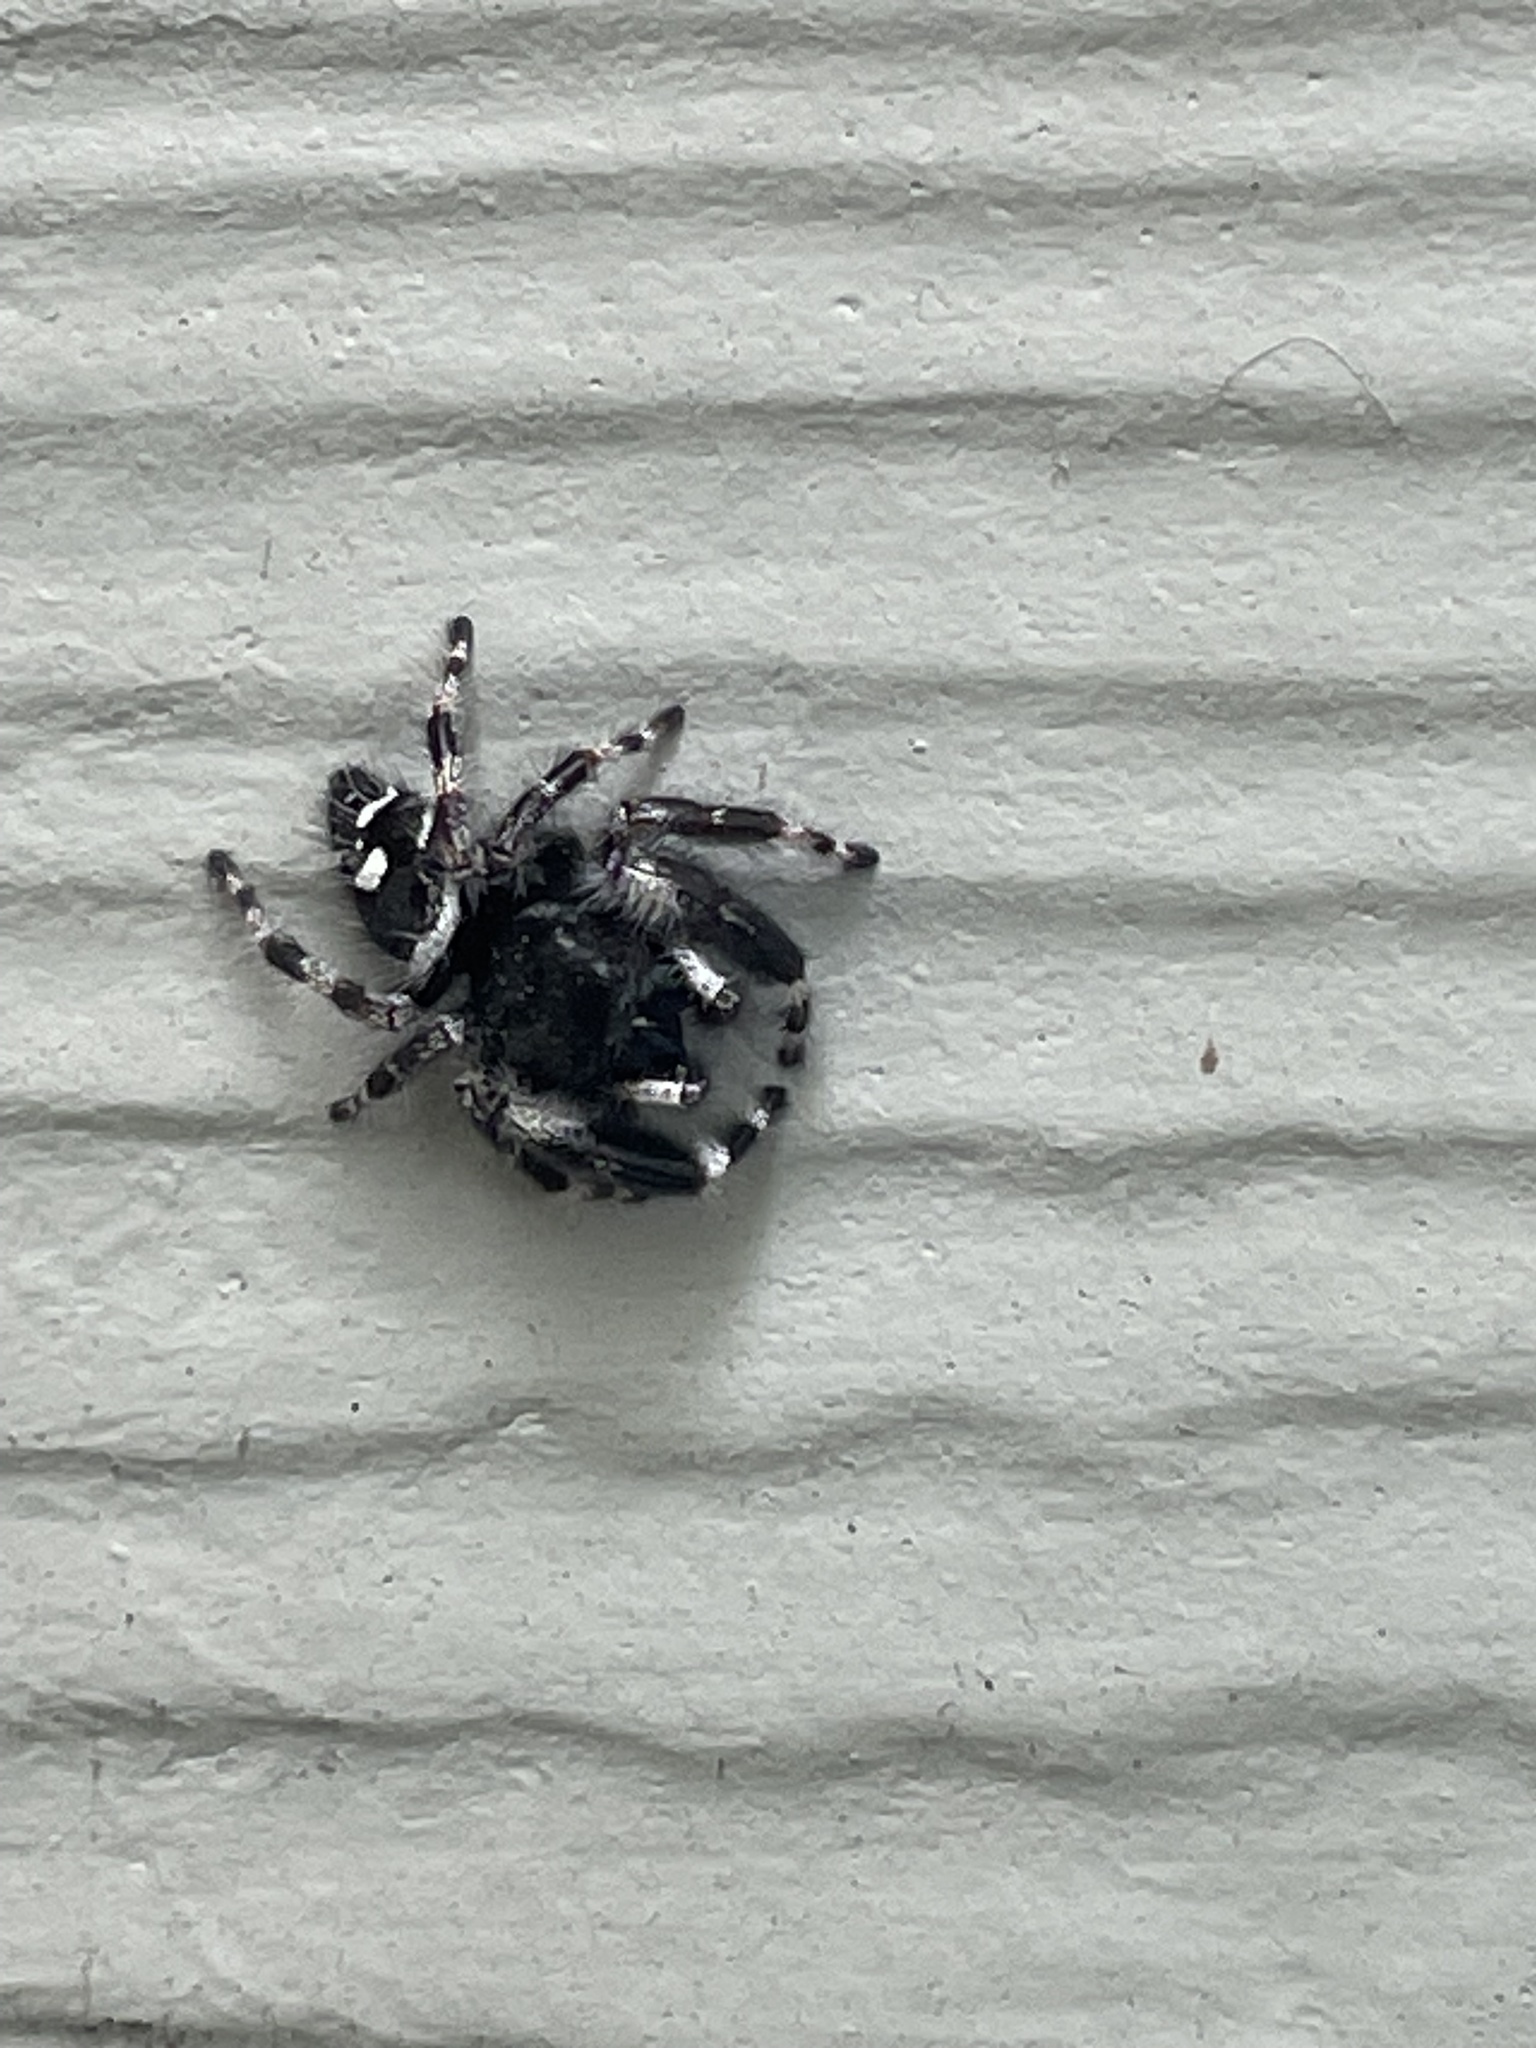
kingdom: Animalia
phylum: Arthropoda
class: Arachnida
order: Araneae
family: Salticidae
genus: Phidippus
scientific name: Phidippus audax
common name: Bold jumper
